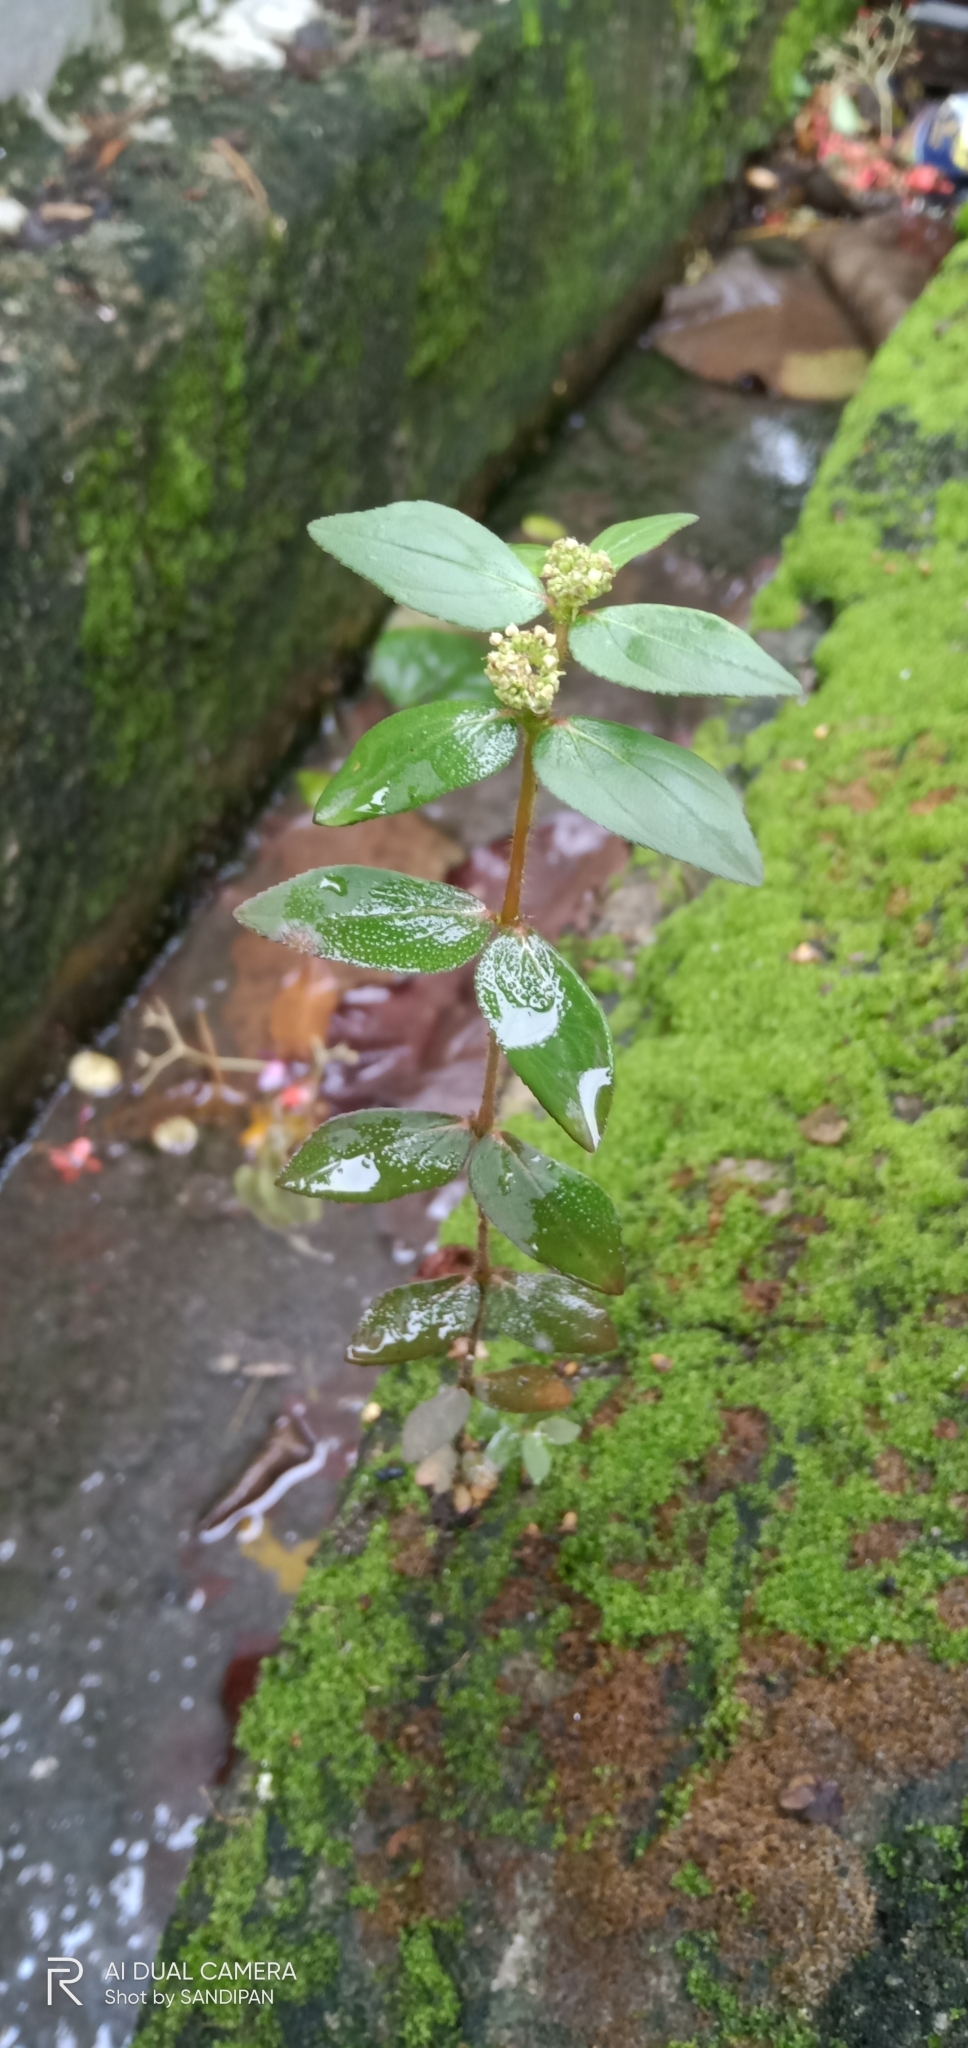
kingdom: Plantae
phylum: Tracheophyta
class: Magnoliopsida
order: Malpighiales
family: Euphorbiaceae
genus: Euphorbia
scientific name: Euphorbia hirta
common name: Pillpod sandmat
